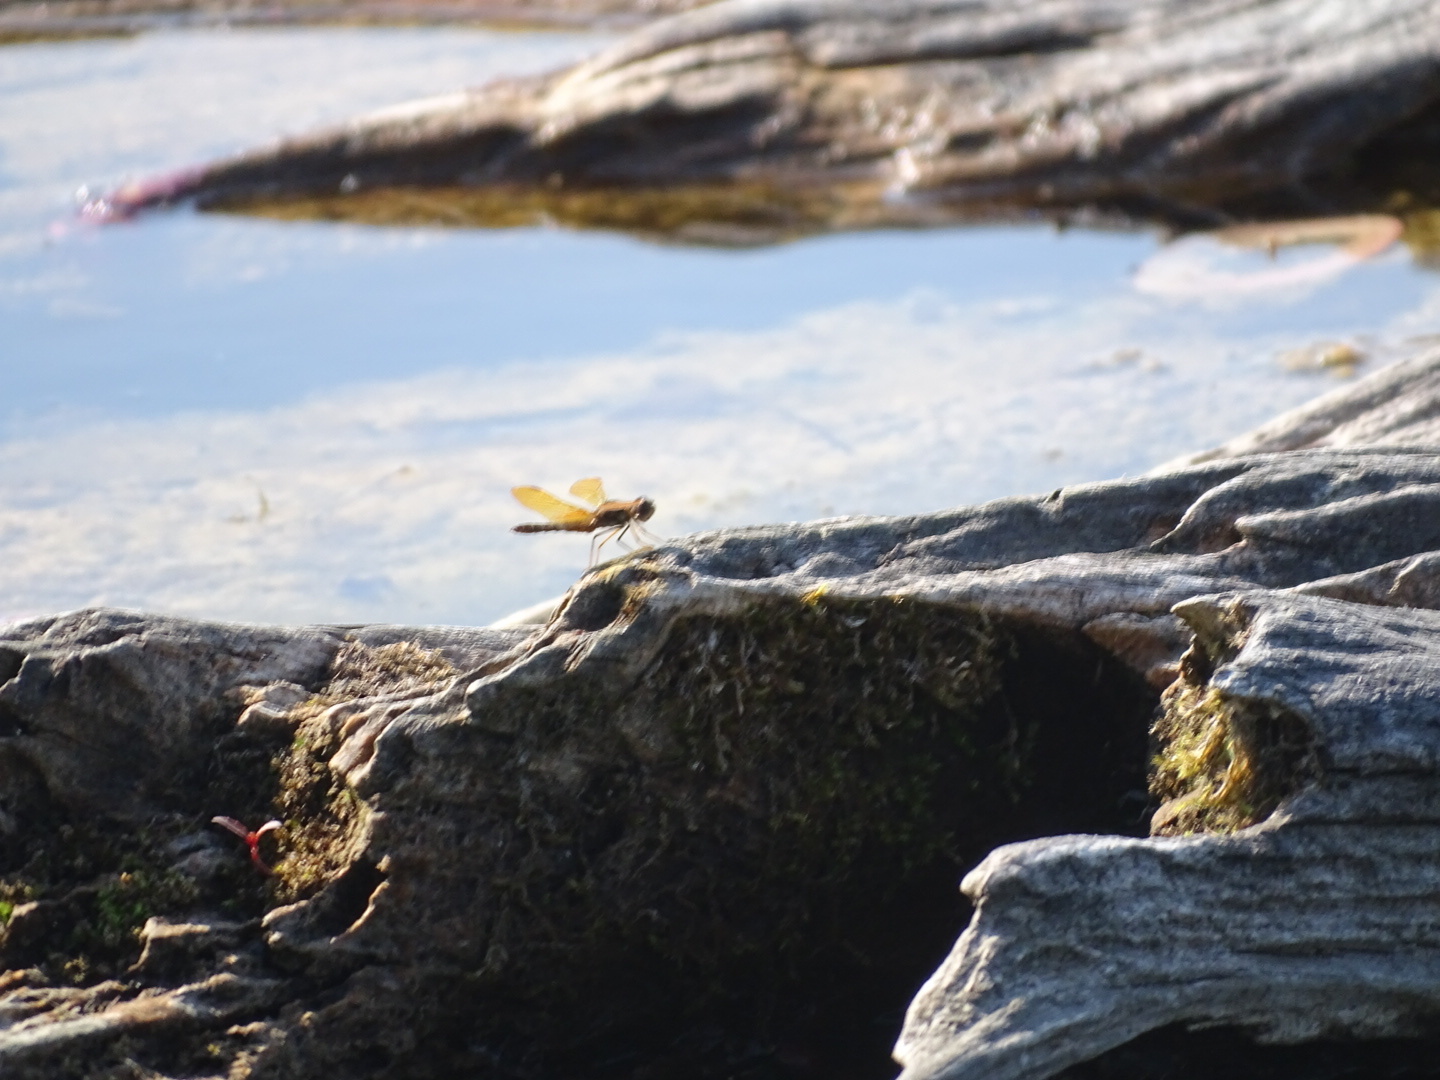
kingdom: Animalia
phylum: Arthropoda
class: Insecta
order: Odonata
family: Libellulidae
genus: Perithemis
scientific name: Perithemis tenera
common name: Eastern amberwing
